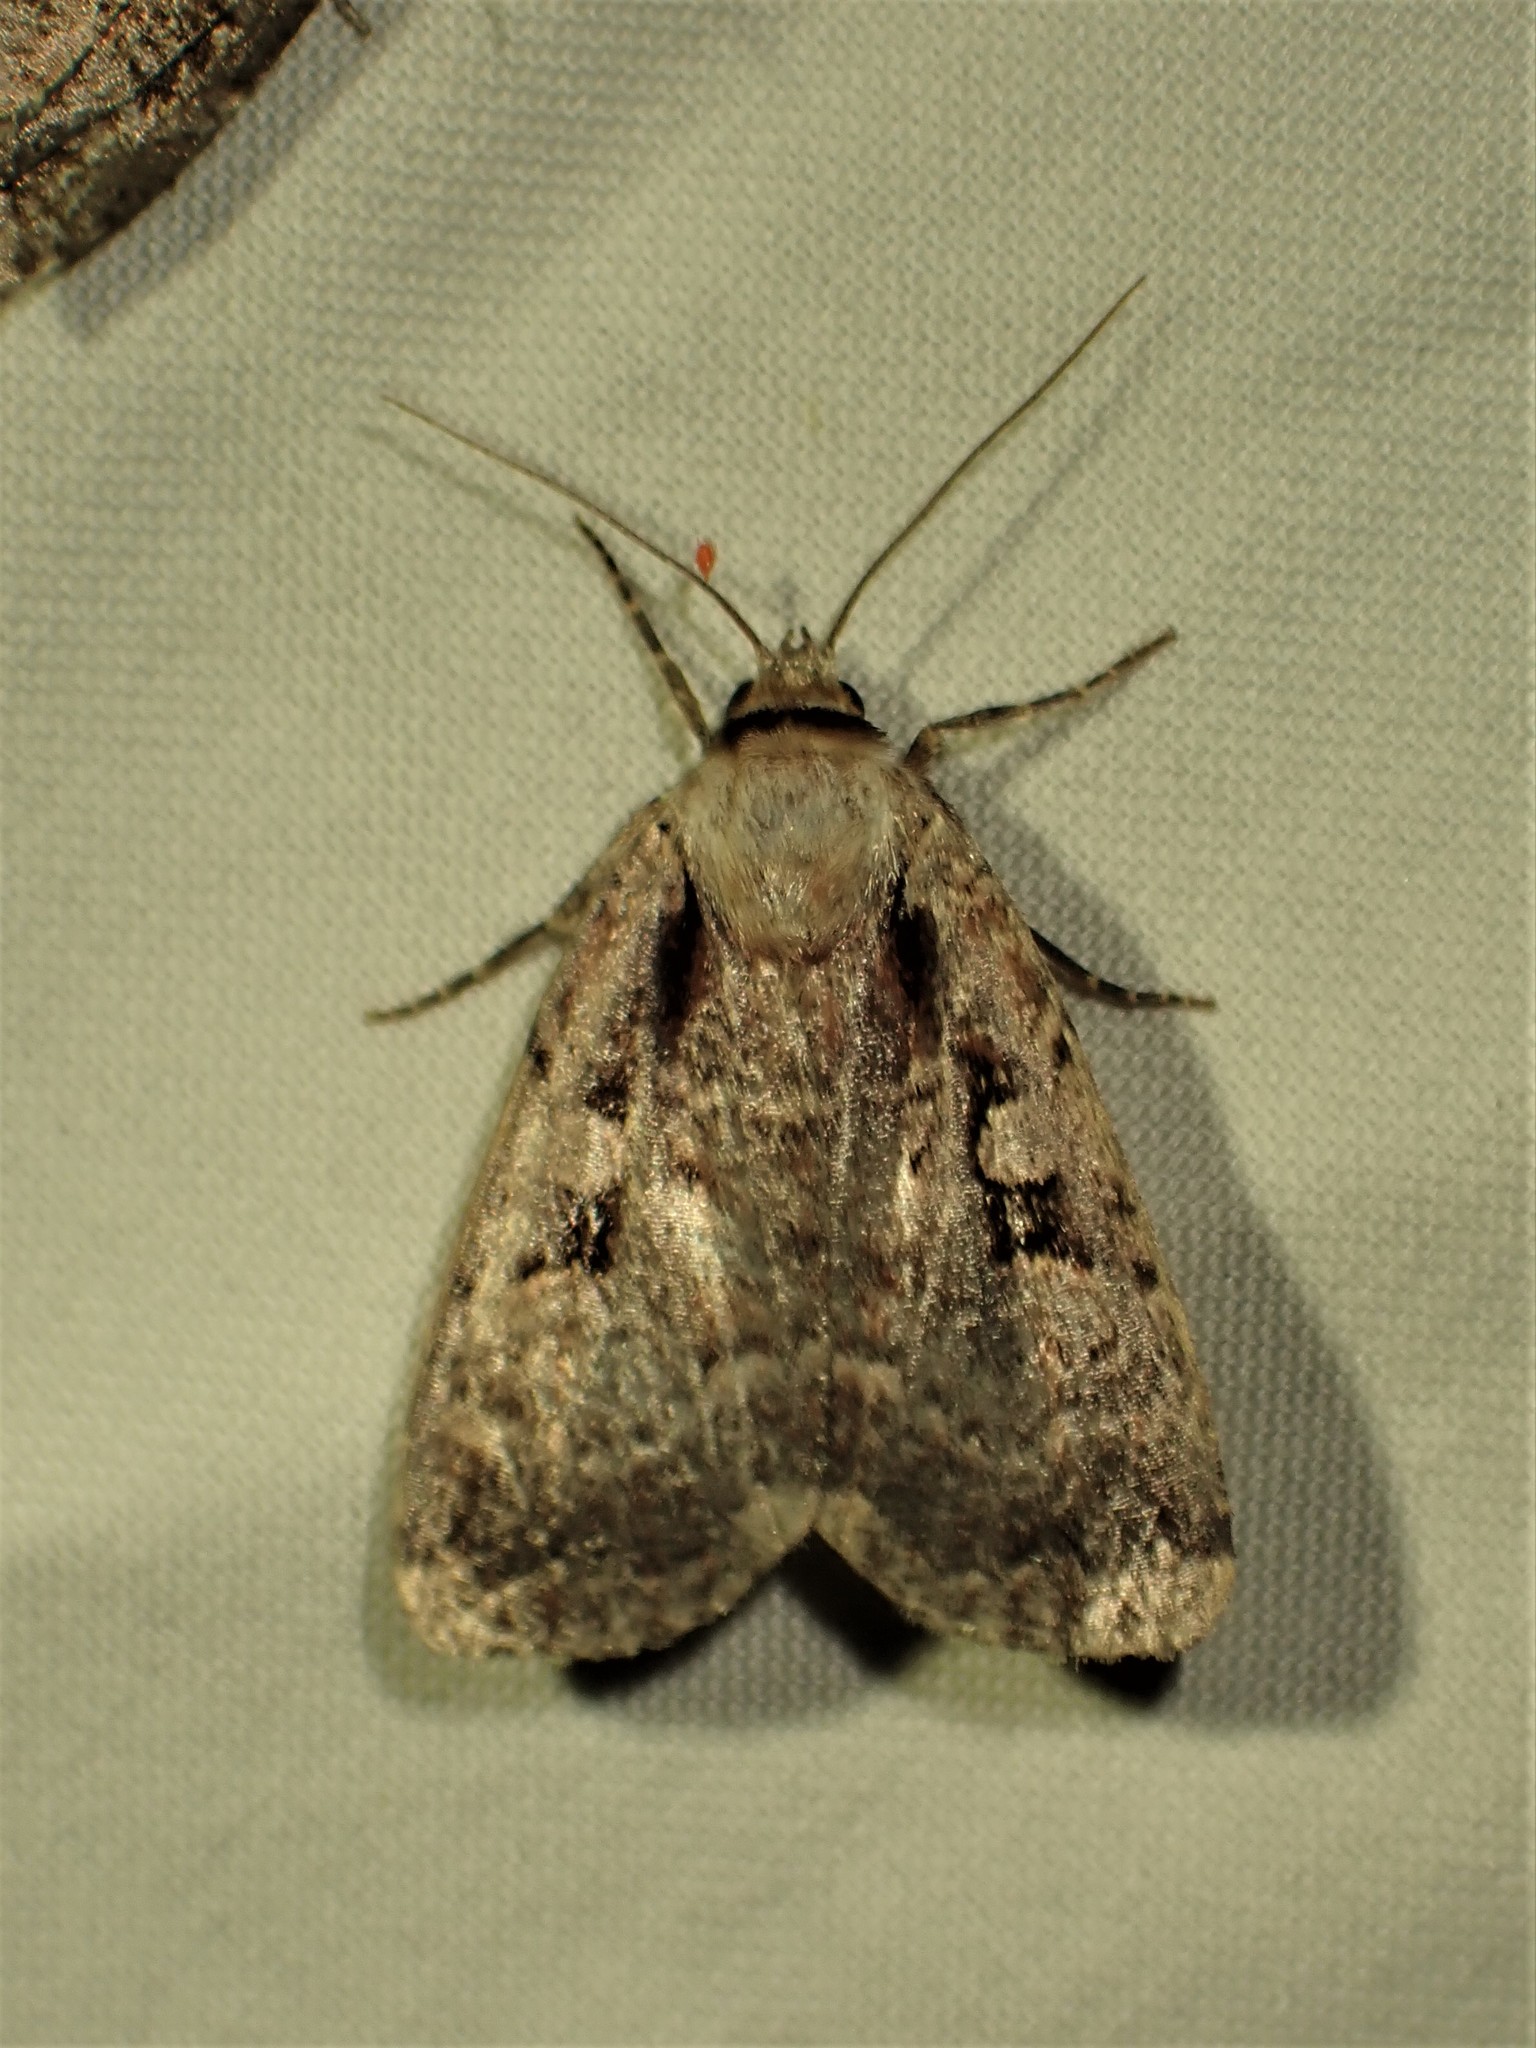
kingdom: Animalia
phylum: Arthropoda
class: Insecta
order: Lepidoptera
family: Noctuidae
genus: Eueretagrotis
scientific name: Eueretagrotis perattentus
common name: Two-spot dart moth
